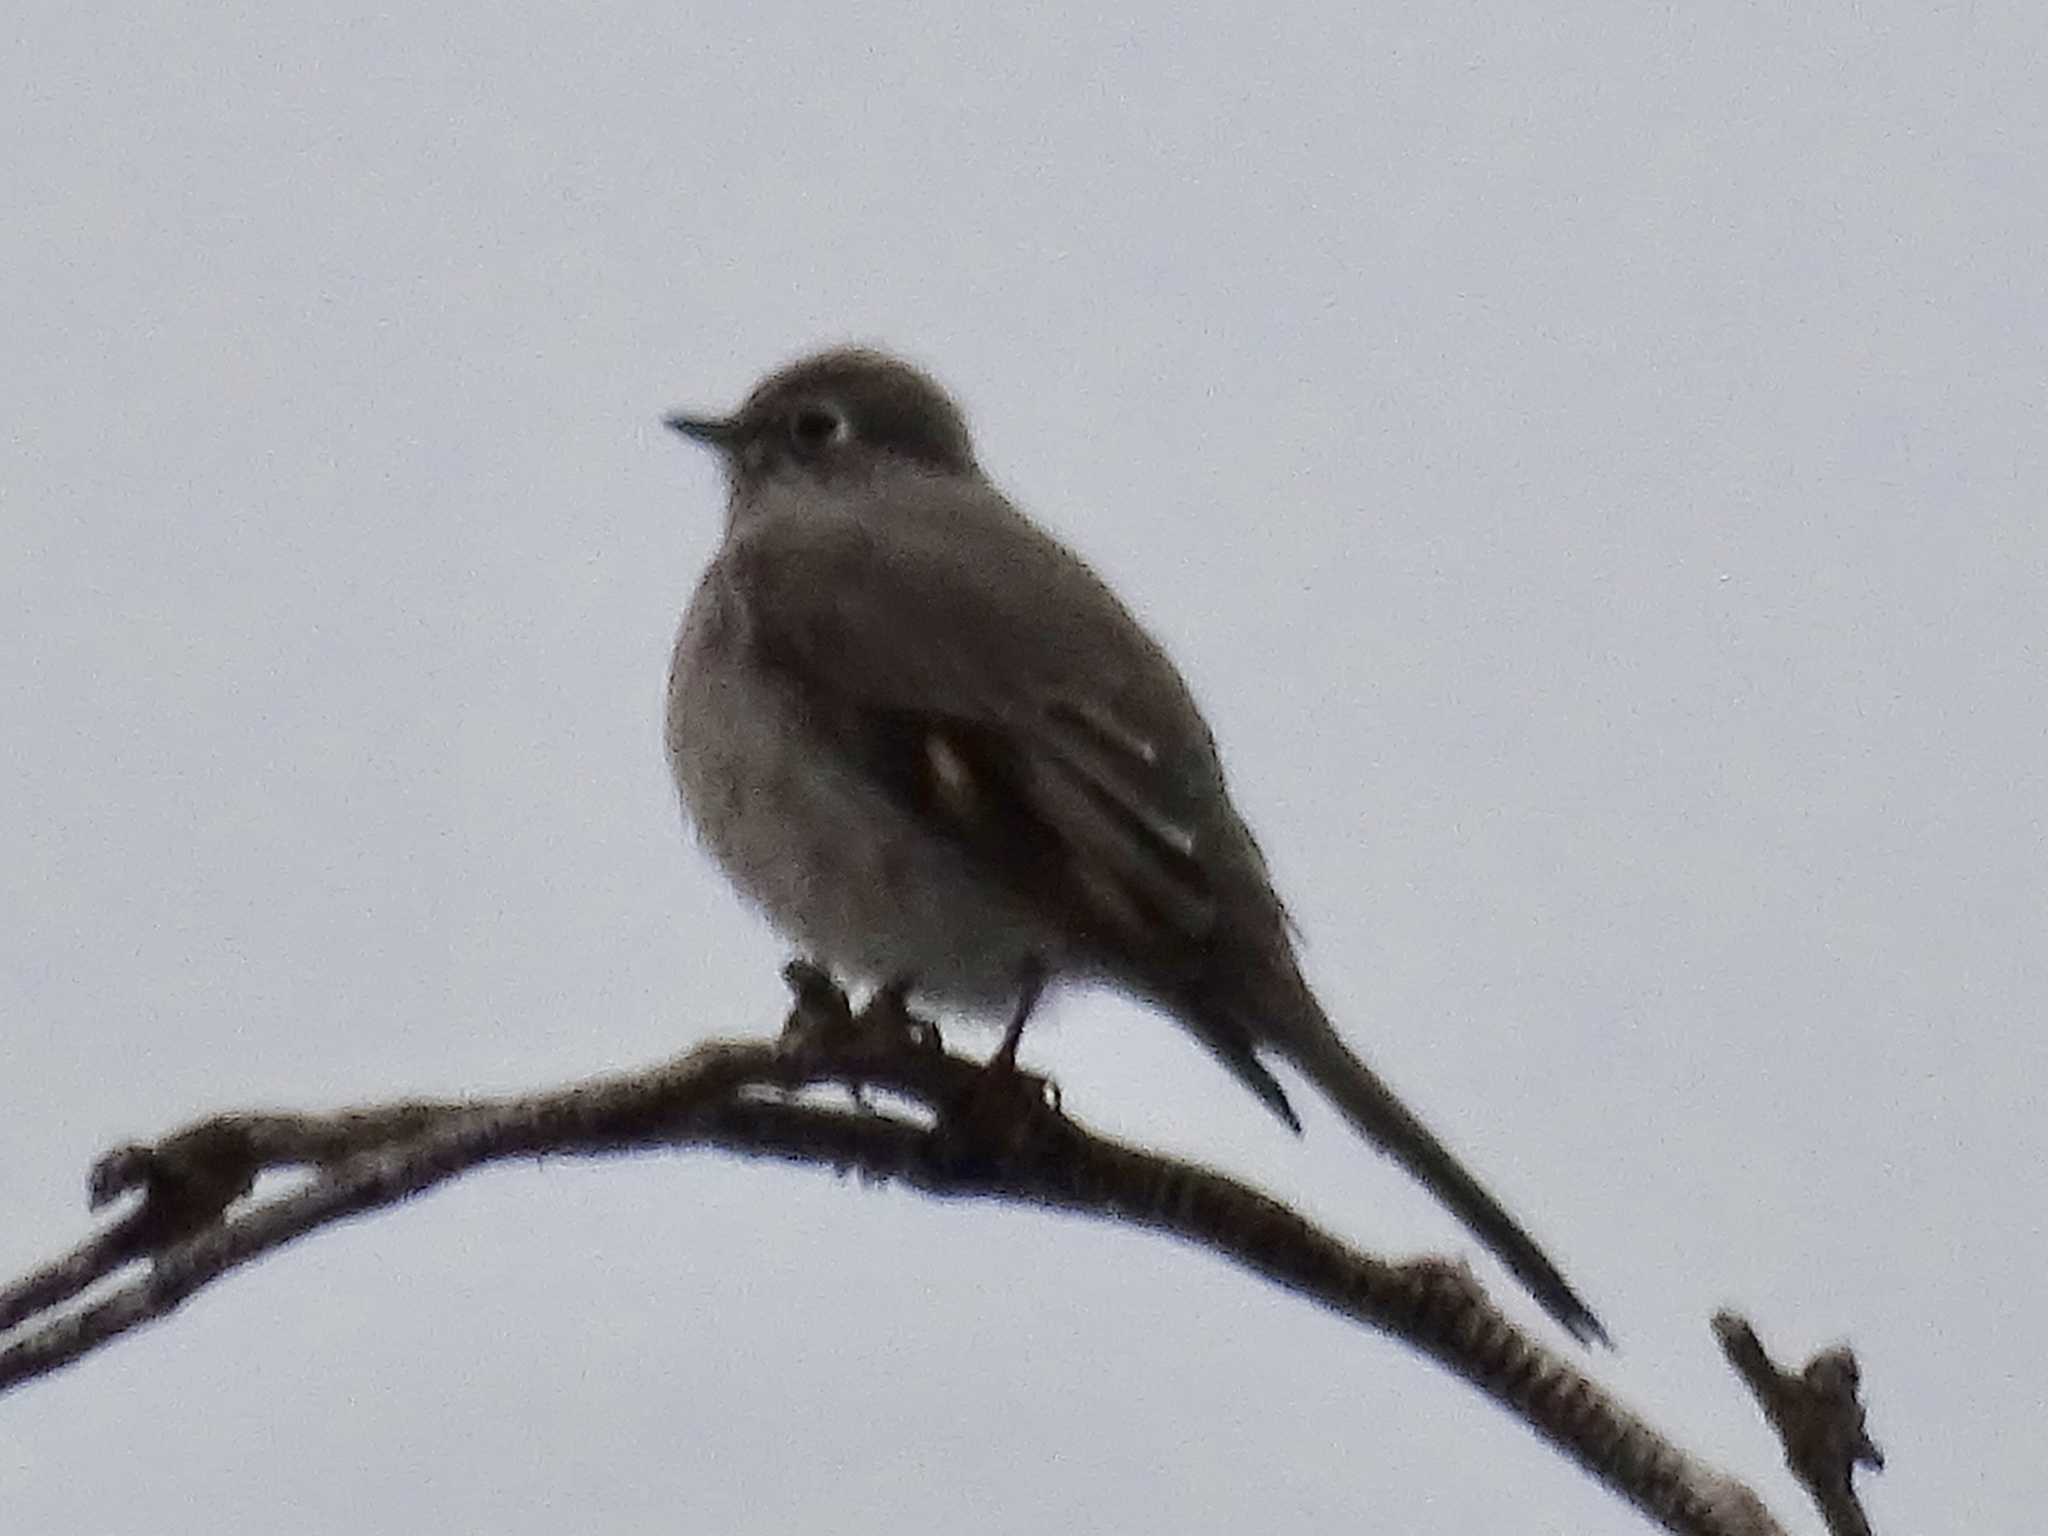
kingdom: Animalia
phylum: Chordata
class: Aves
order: Passeriformes
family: Turdidae
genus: Myadestes
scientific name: Myadestes townsendi
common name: Townsend's solitaire
